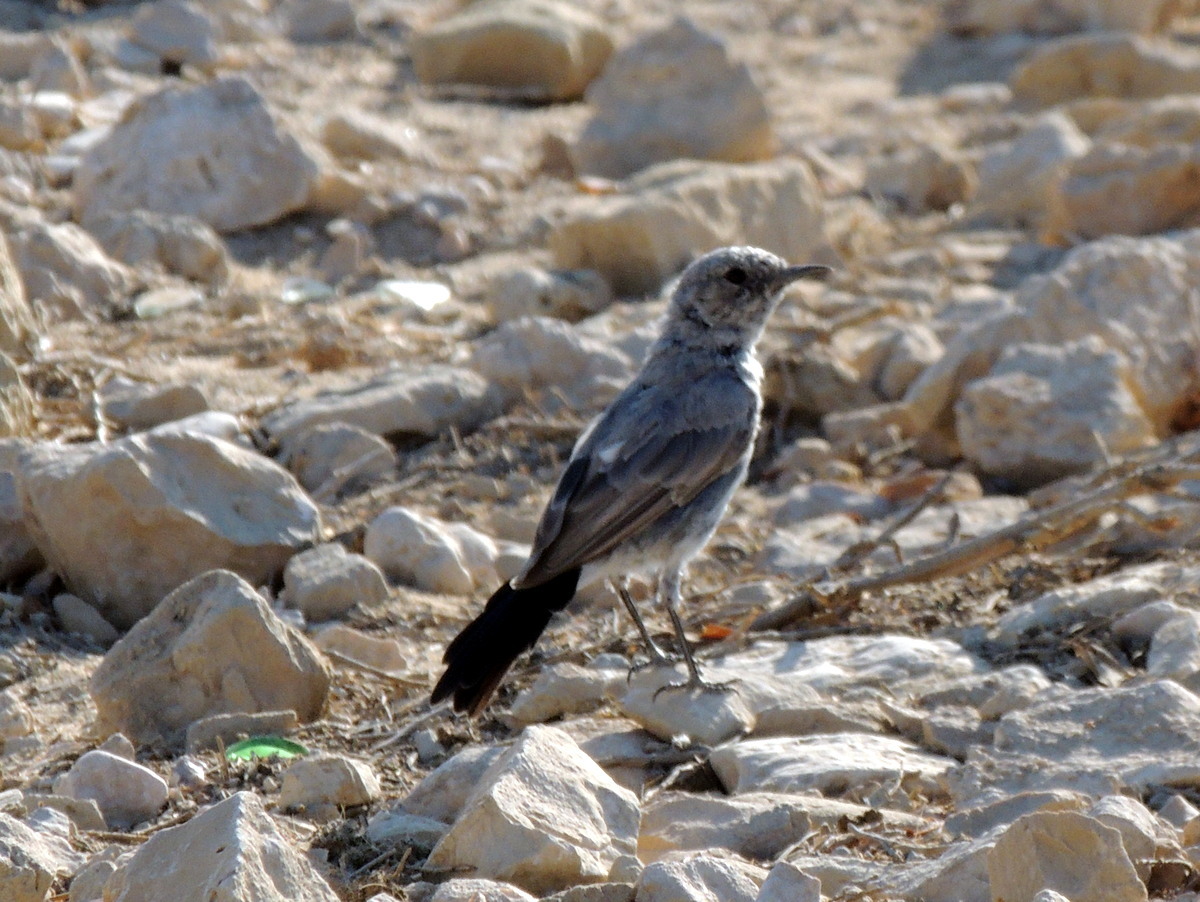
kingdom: Animalia
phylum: Chordata
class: Aves
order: Passeriformes
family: Muscicapidae
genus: Oenanthe
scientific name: Oenanthe melanura
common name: Blackstart
